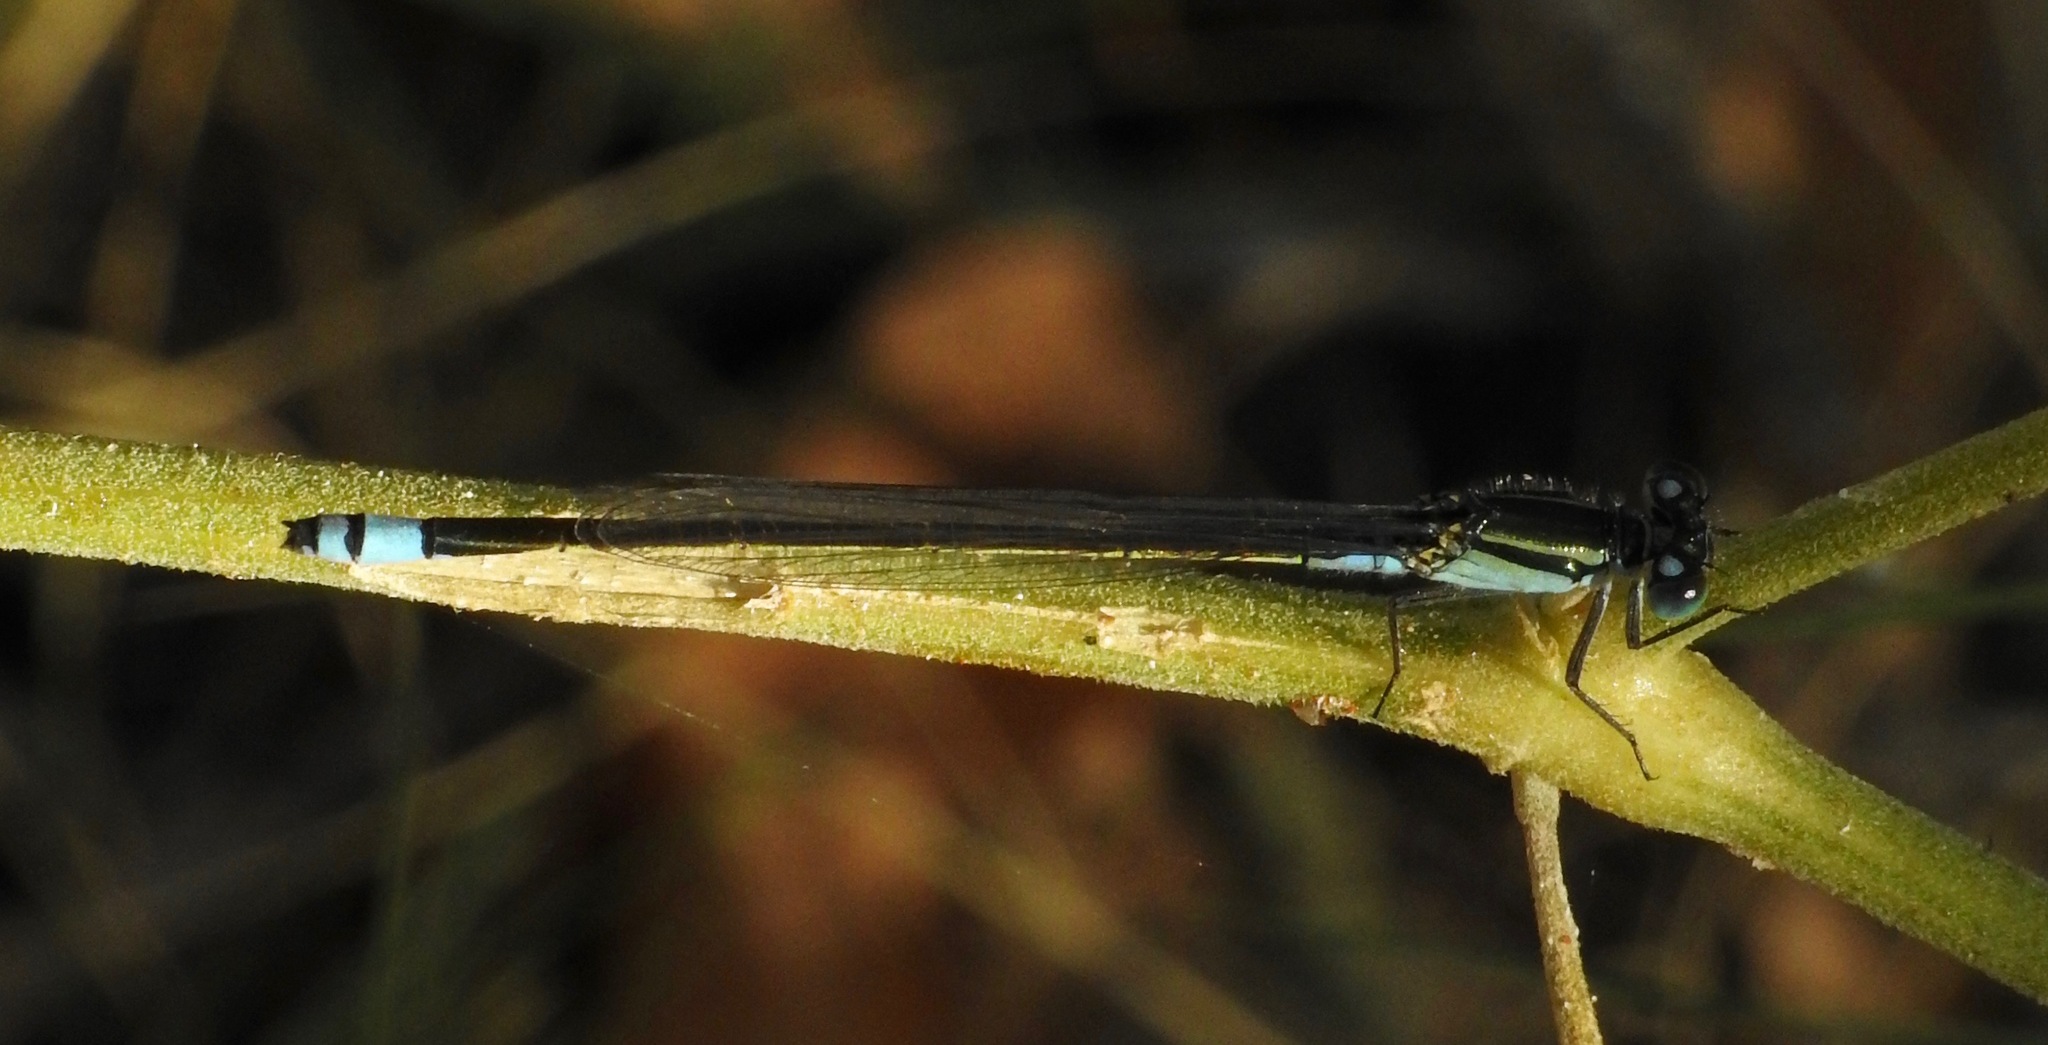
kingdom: Animalia
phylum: Arthropoda
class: Insecta
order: Odonata
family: Coenagrionidae
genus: Ischnura
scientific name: Ischnura heterosticta
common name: Common bluetail
